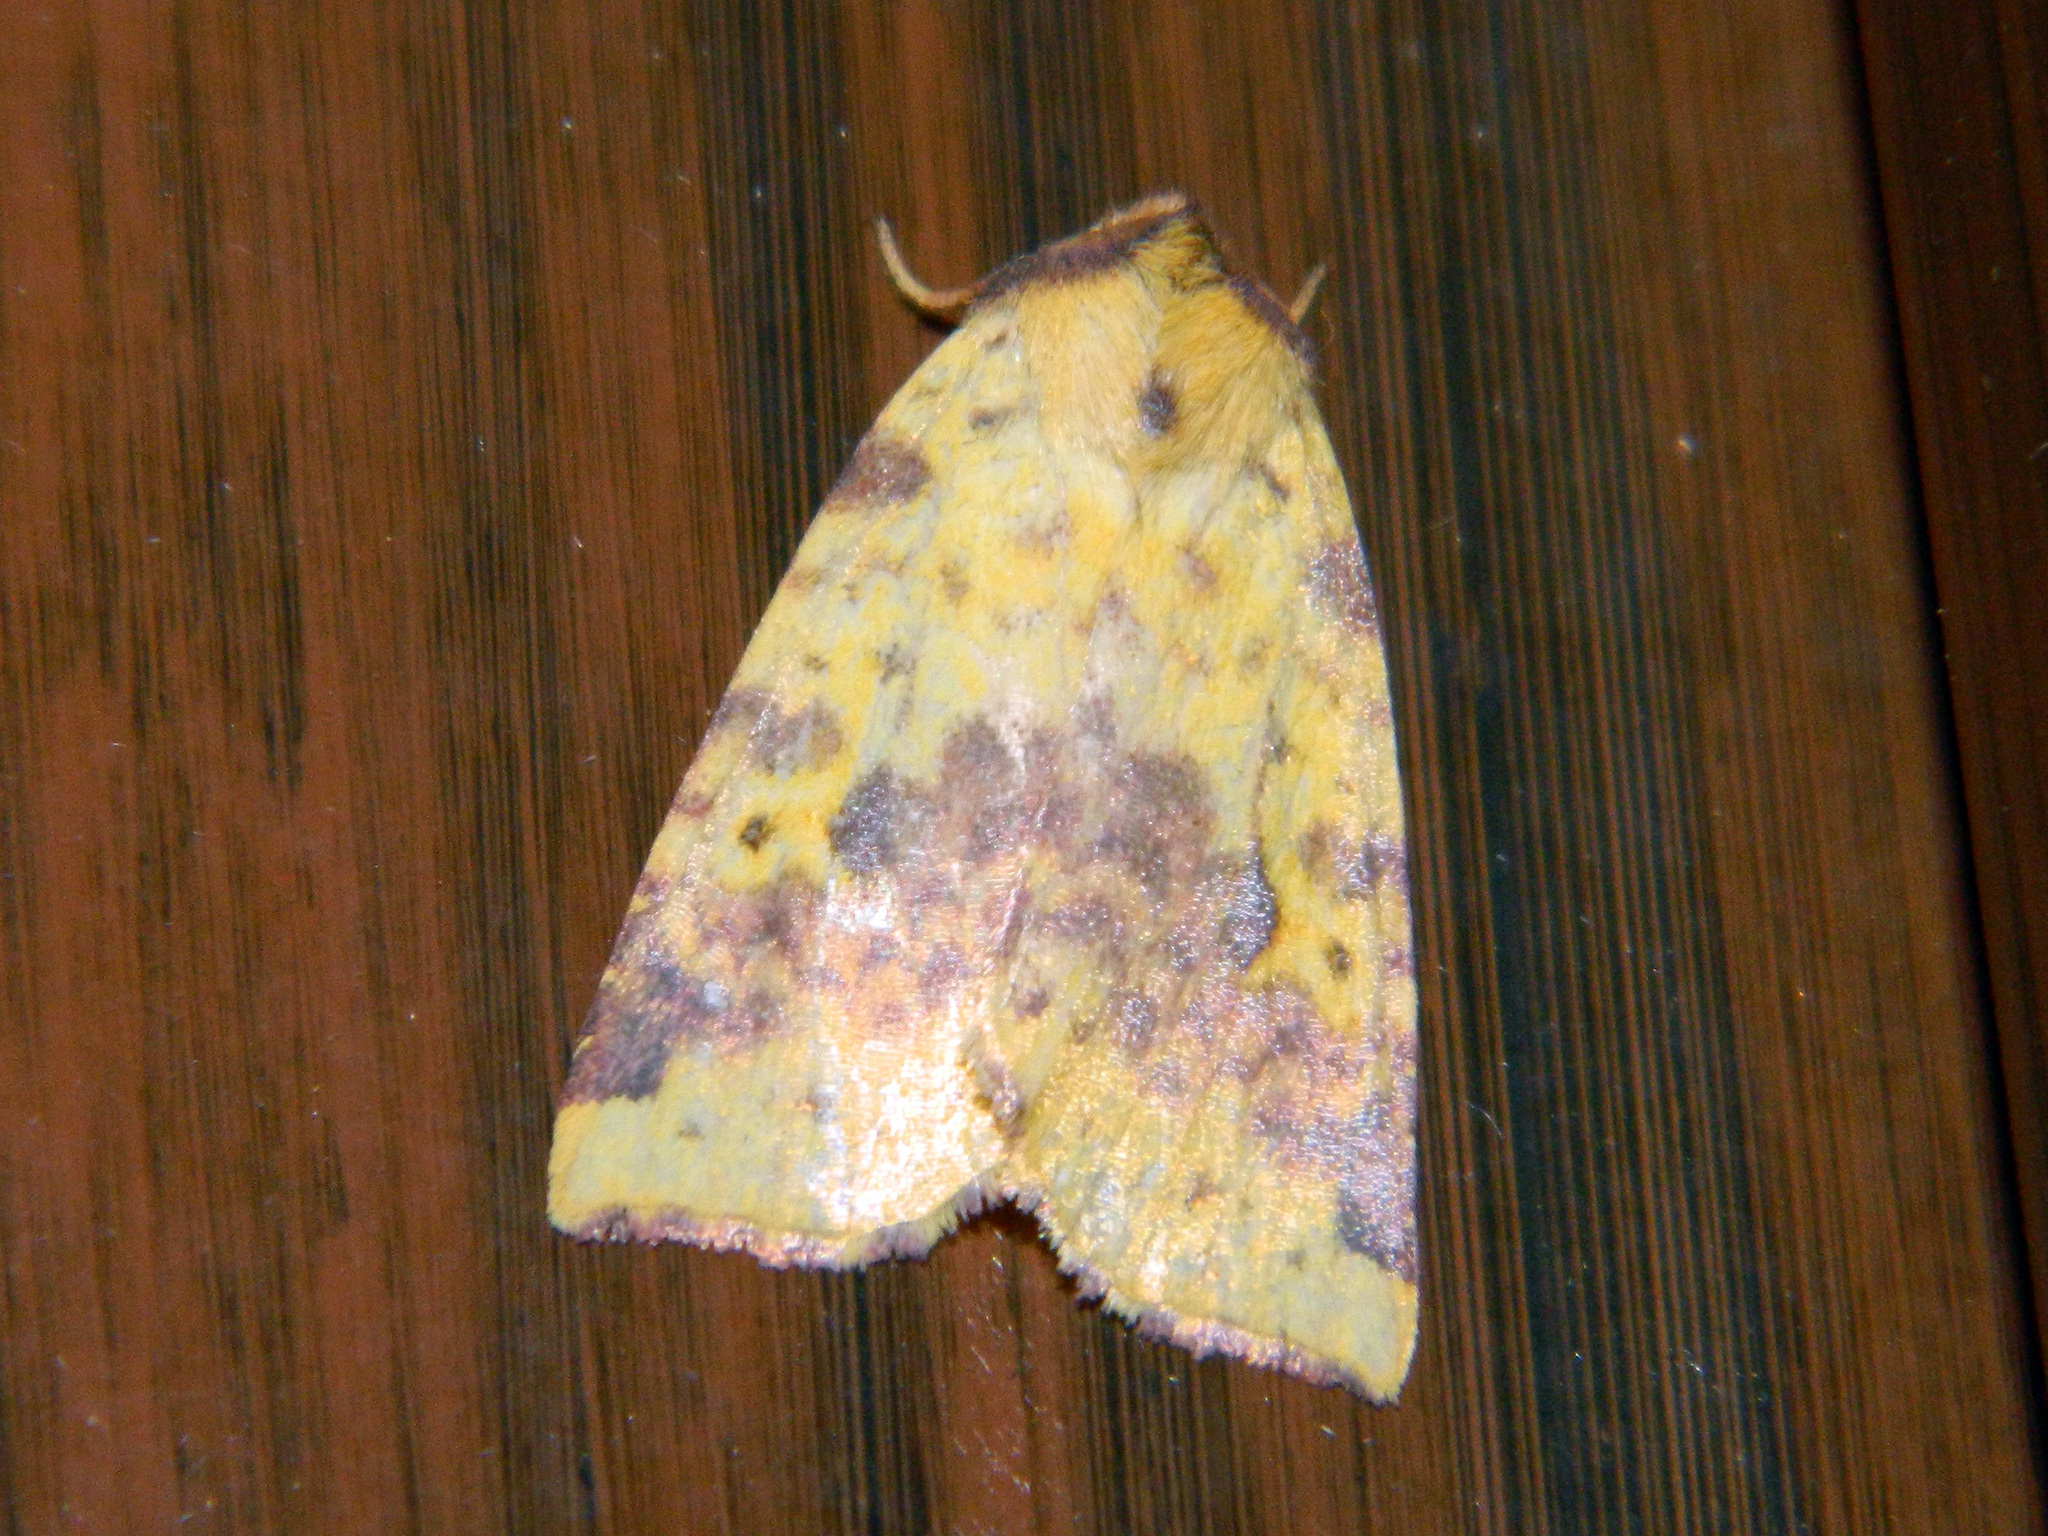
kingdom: Animalia
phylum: Arthropoda
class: Insecta
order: Lepidoptera
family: Noctuidae
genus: Xanthia
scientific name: Xanthia tatago
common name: Pink-banded sallow
